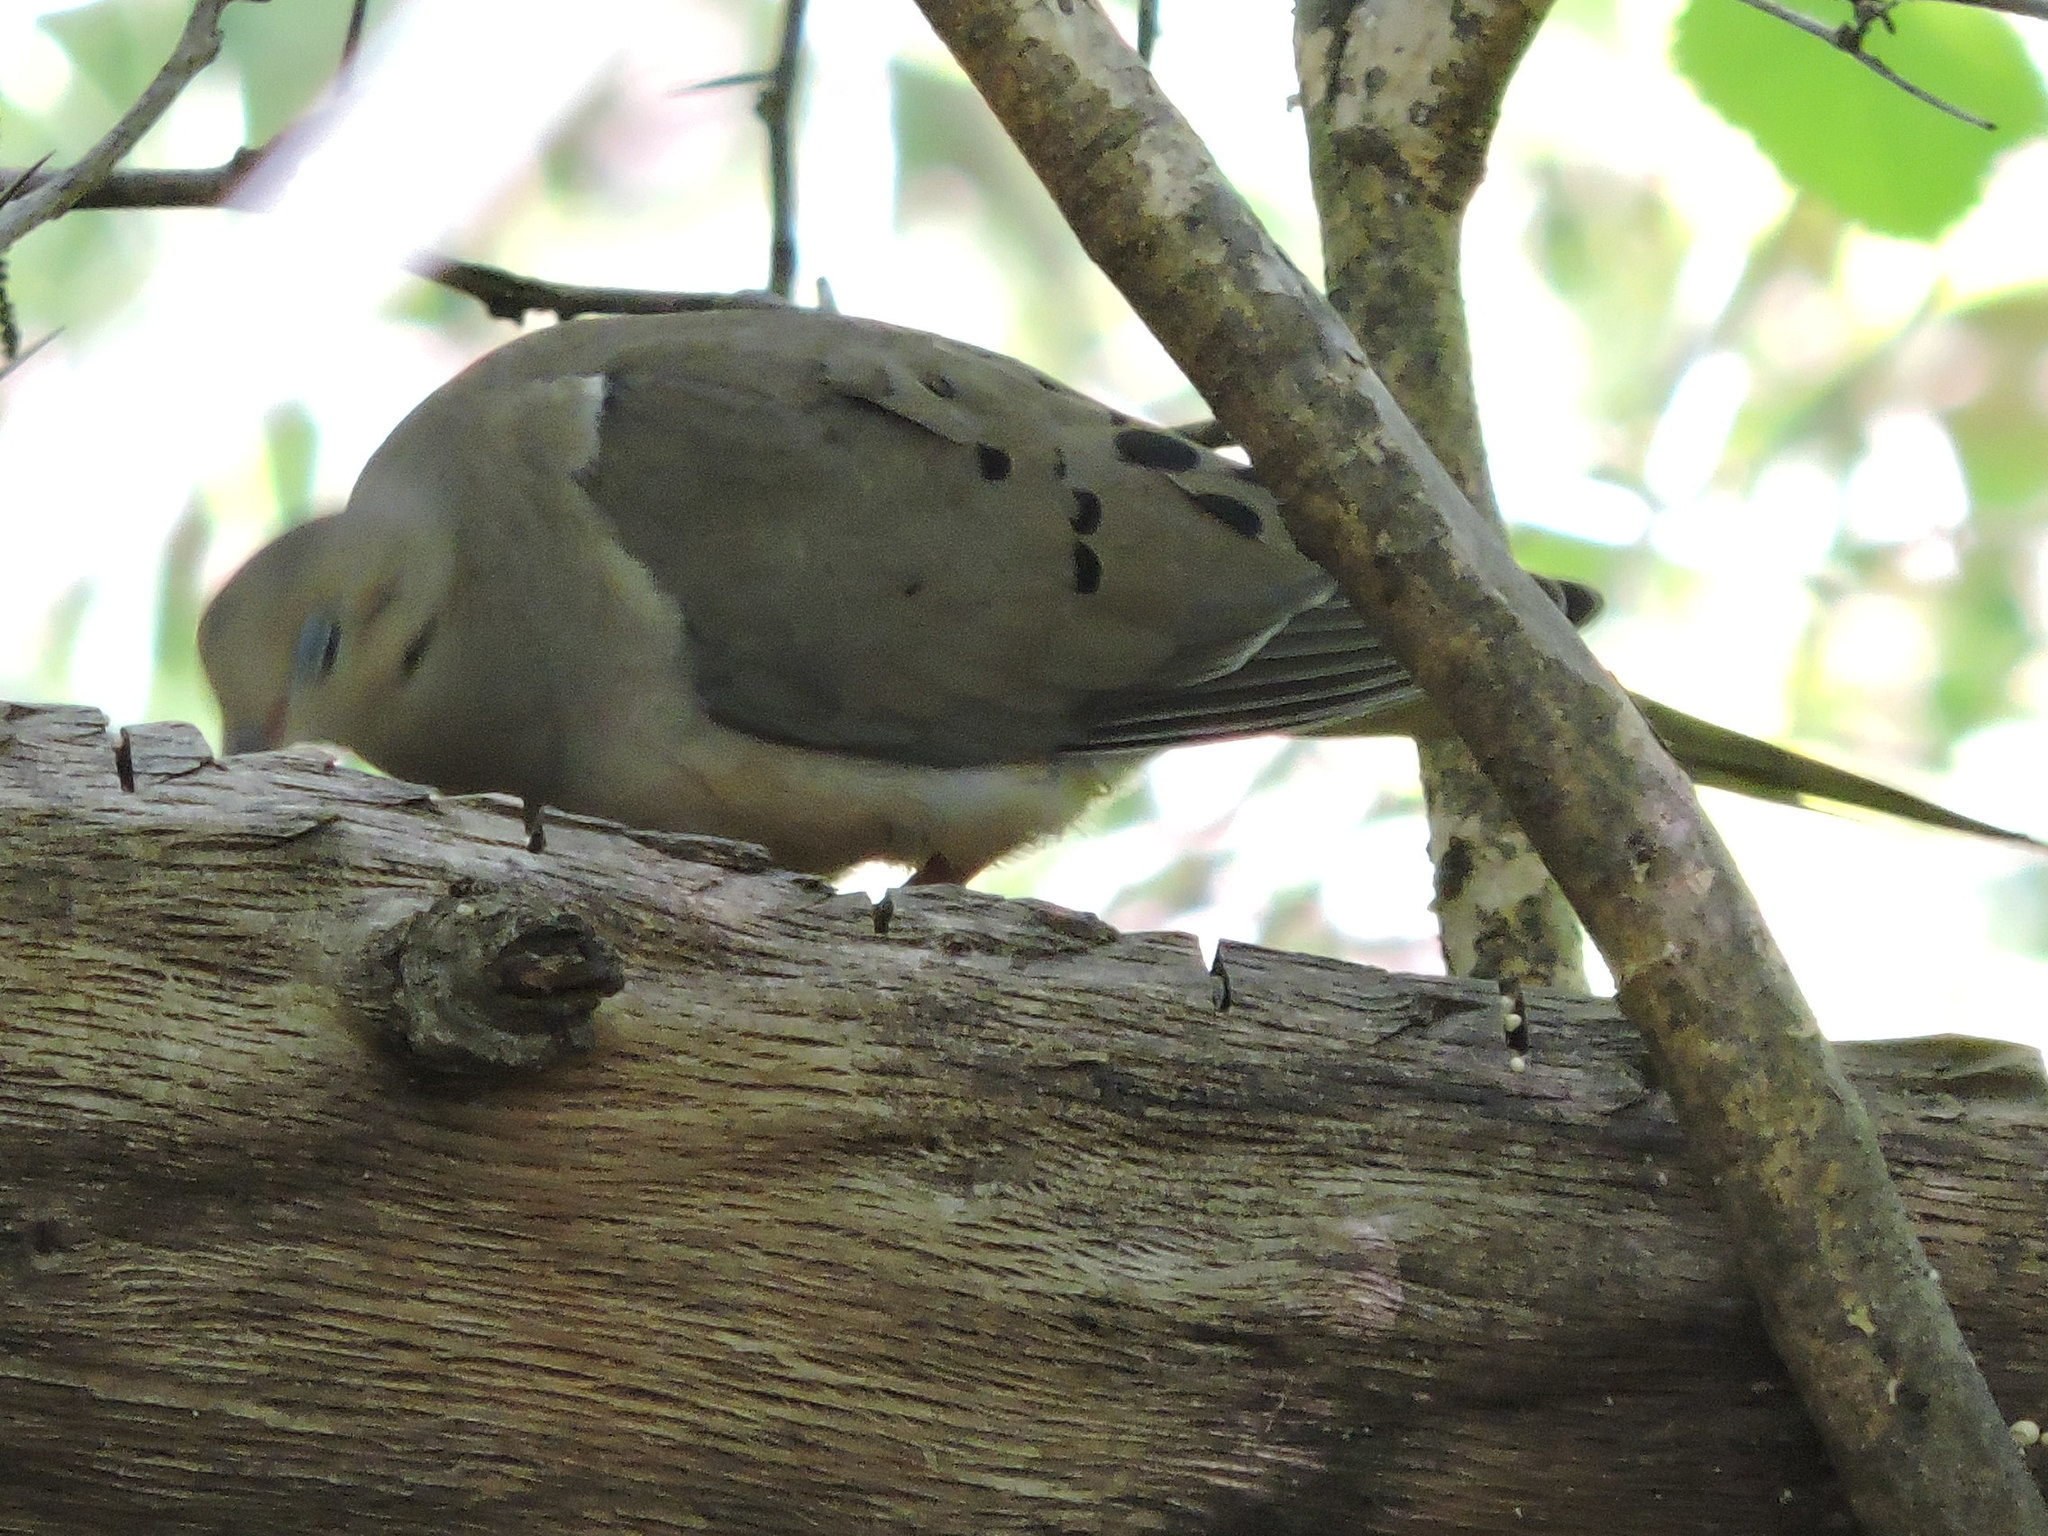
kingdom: Animalia
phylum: Chordata
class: Aves
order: Columbiformes
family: Columbidae
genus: Zenaida
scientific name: Zenaida macroura
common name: Mourning dove
